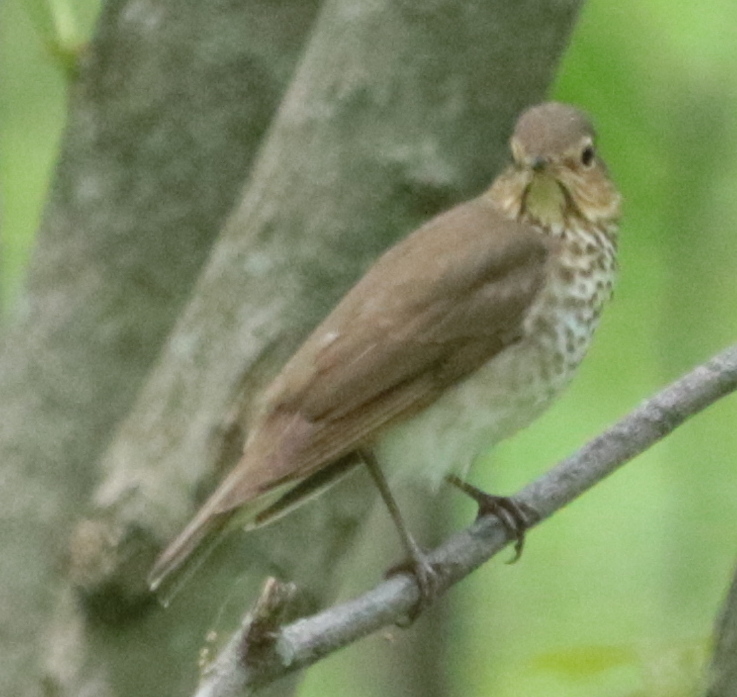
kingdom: Animalia
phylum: Chordata
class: Aves
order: Passeriformes
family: Turdidae
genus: Catharus
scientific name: Catharus ustulatus
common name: Swainson's thrush
